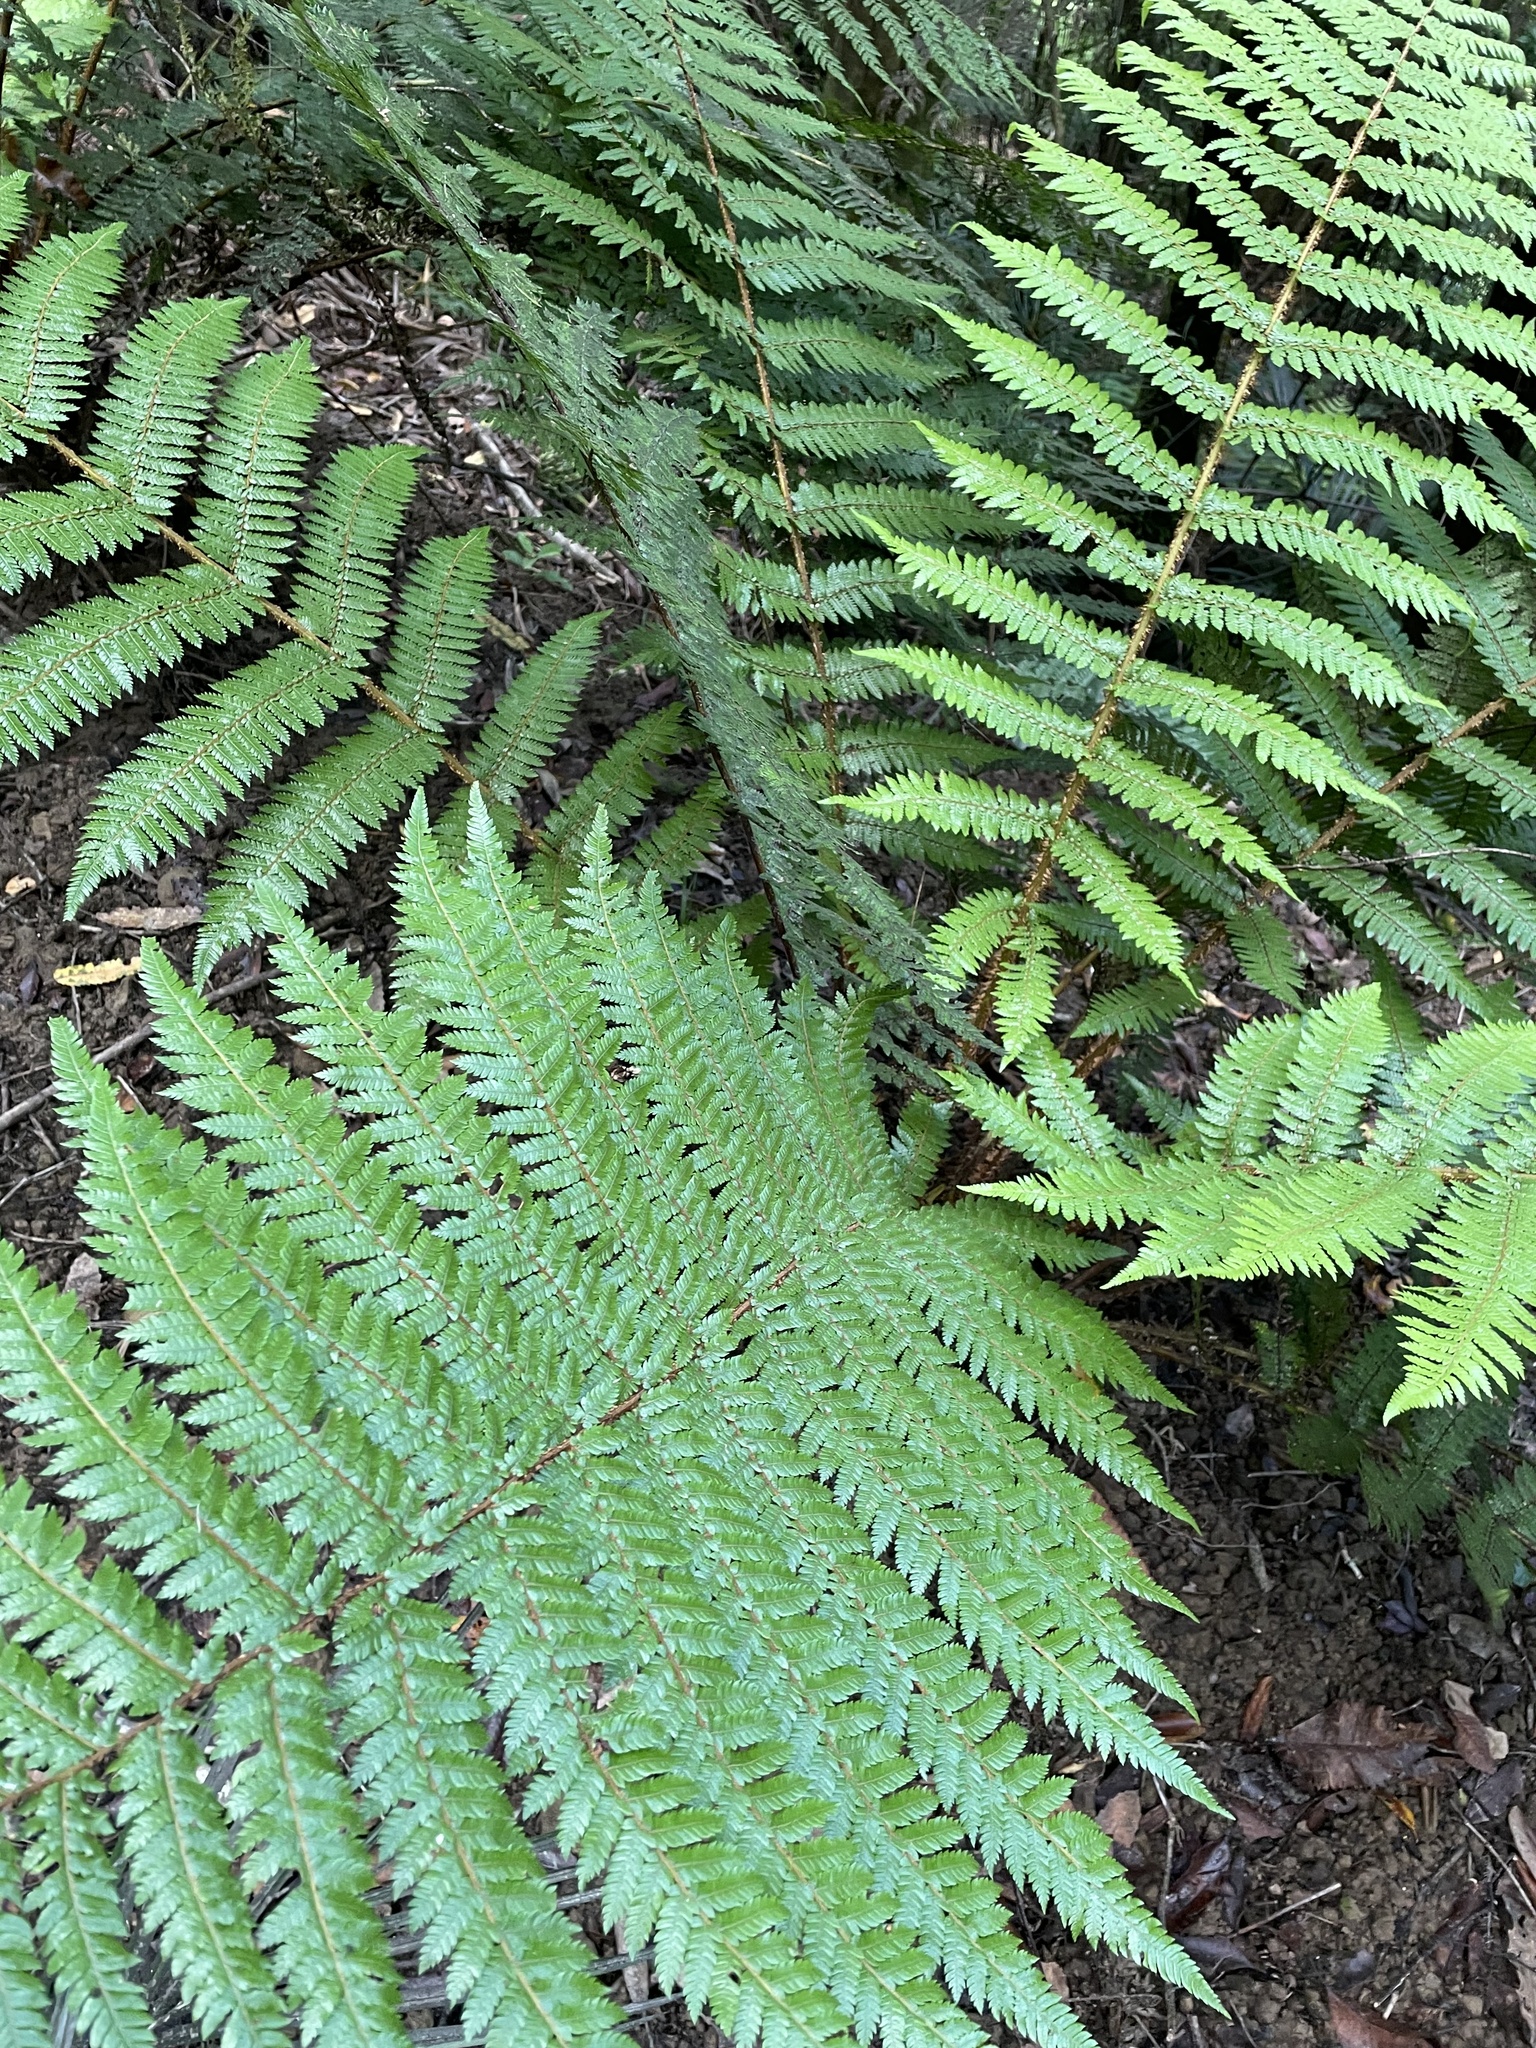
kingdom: Plantae
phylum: Tracheophyta
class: Polypodiopsida
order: Cyatheales
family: Cyatheaceae
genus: Alsophila
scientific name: Alsophila smithii
